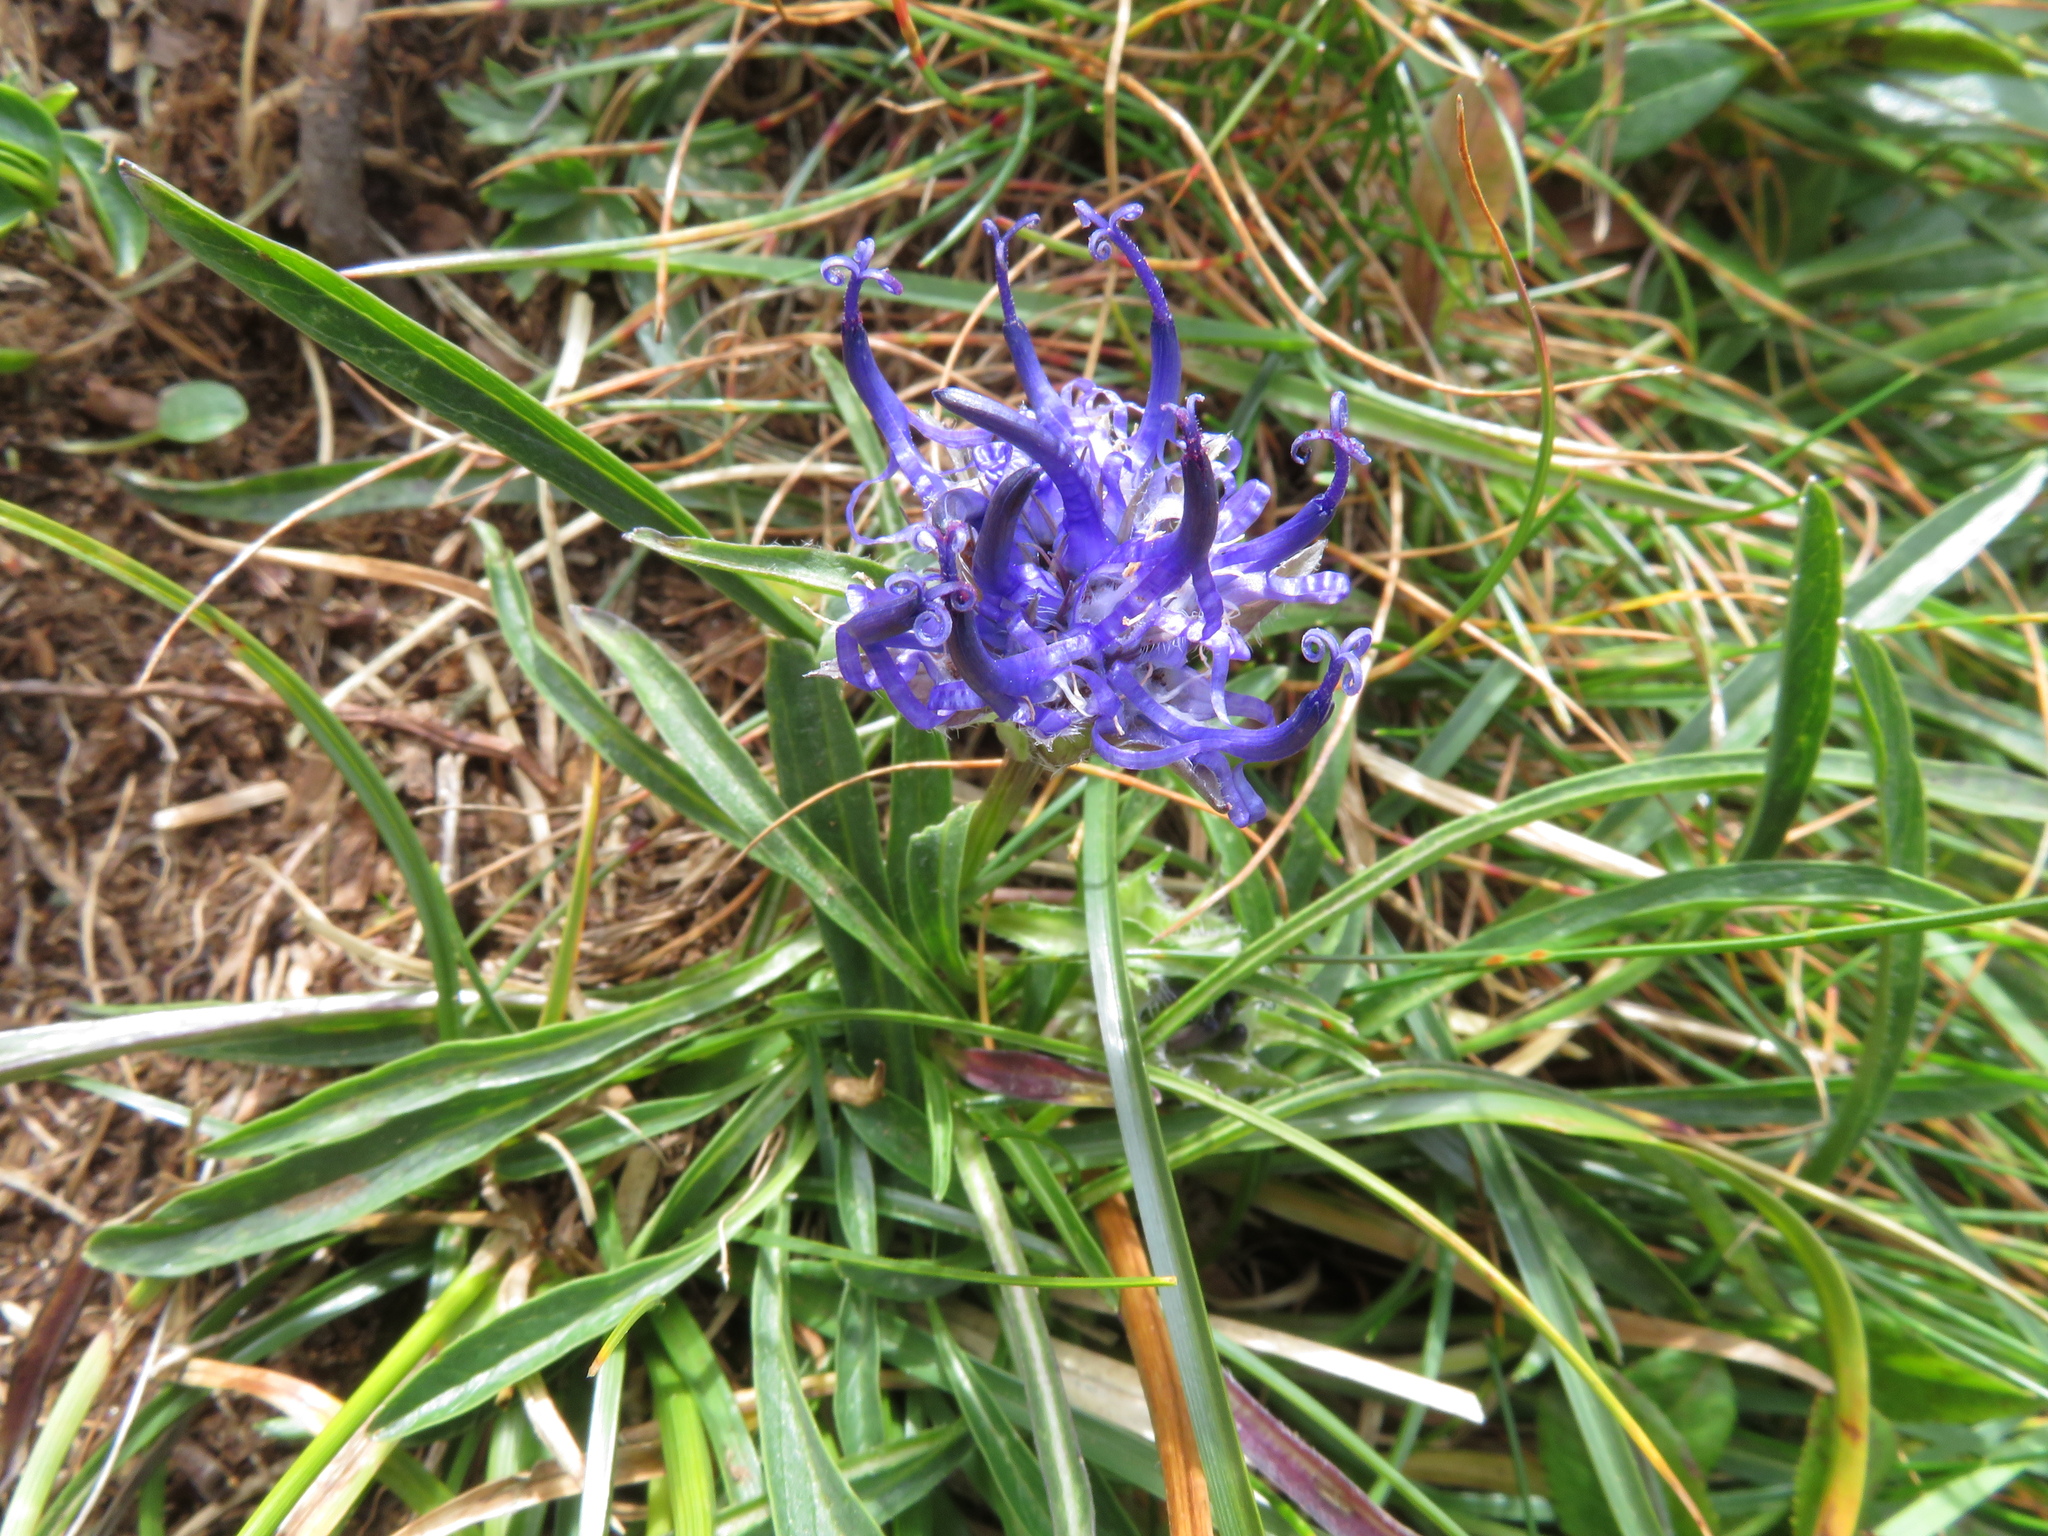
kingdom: Plantae
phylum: Tracheophyta
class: Magnoliopsida
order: Asterales
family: Campanulaceae
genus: Phyteuma
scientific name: Phyteuma confusum
